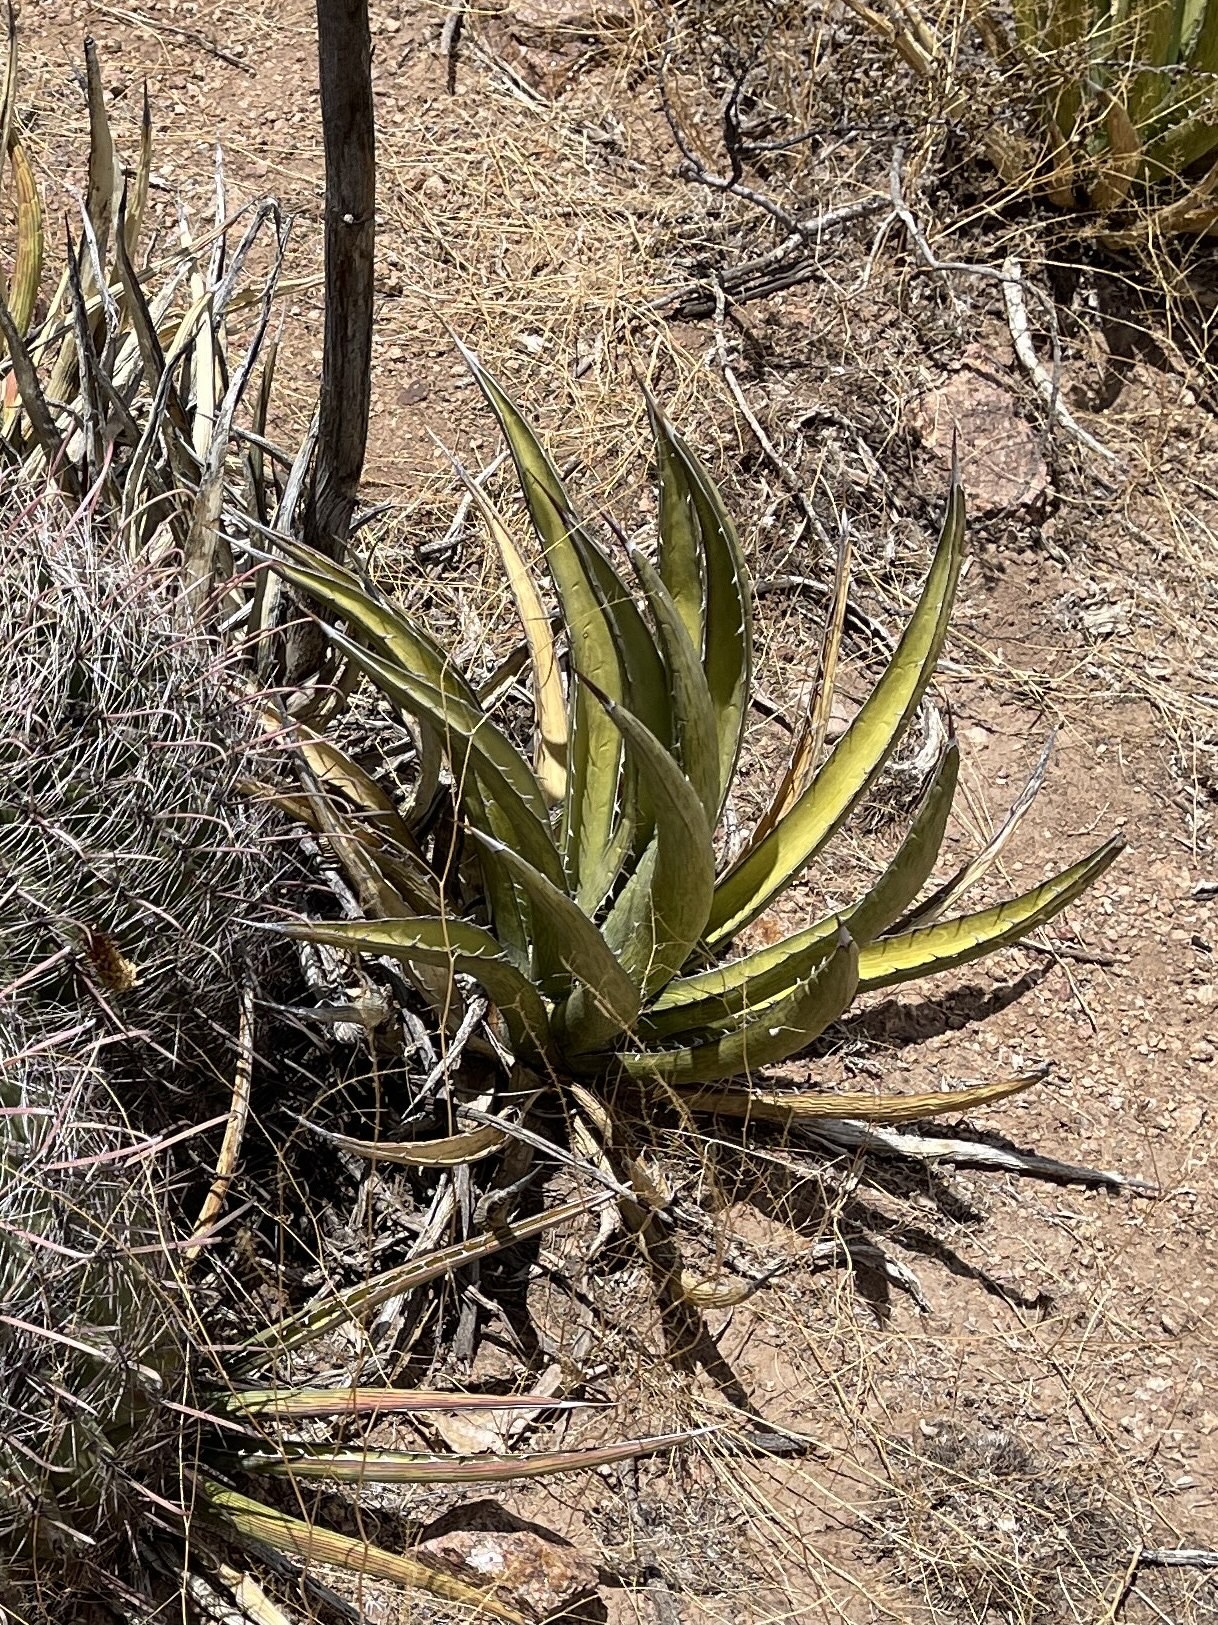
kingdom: Plantae
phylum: Tracheophyta
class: Liliopsida
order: Asparagales
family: Asparagaceae
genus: Agave
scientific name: Agave lechuguilla
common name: Lecheguilla agave
